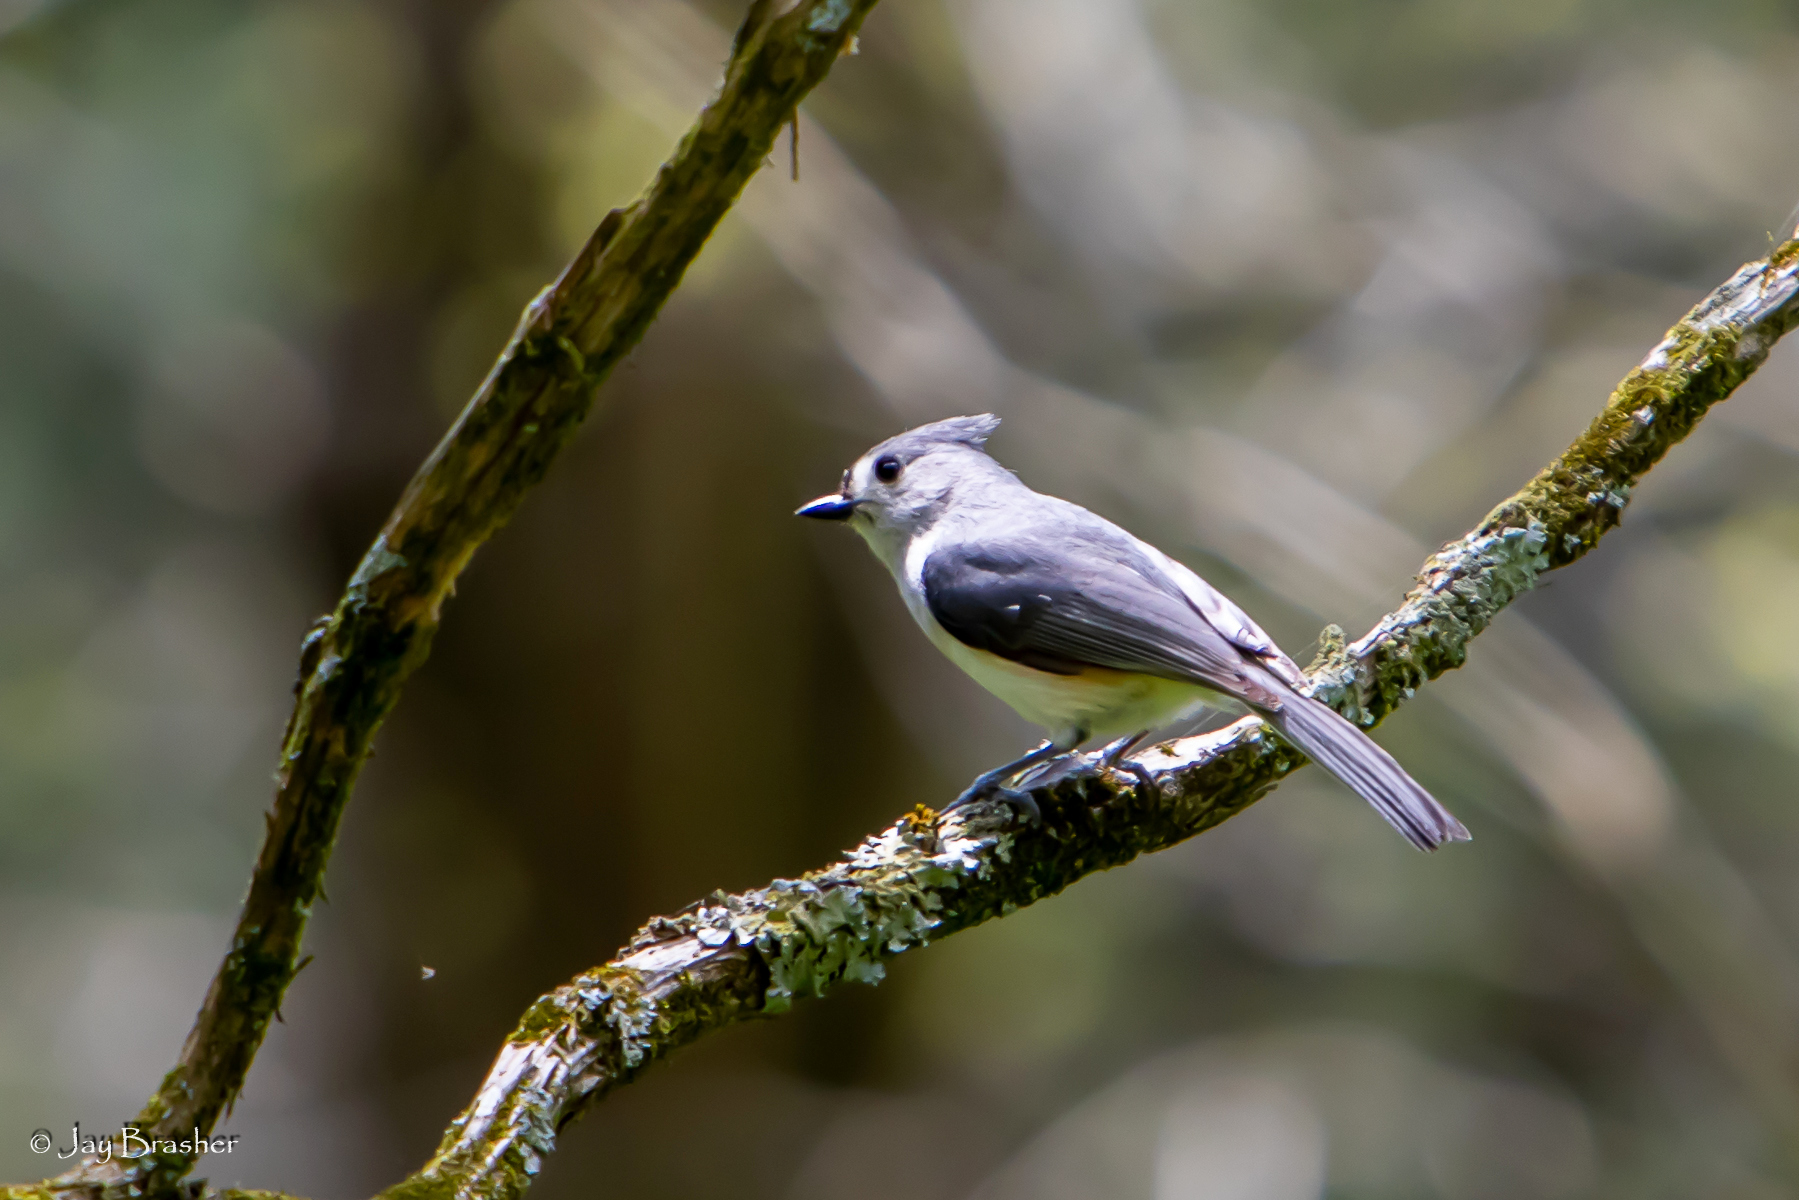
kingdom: Animalia
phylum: Chordata
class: Aves
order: Passeriformes
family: Paridae
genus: Baeolophus
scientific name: Baeolophus bicolor
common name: Tufted titmouse
